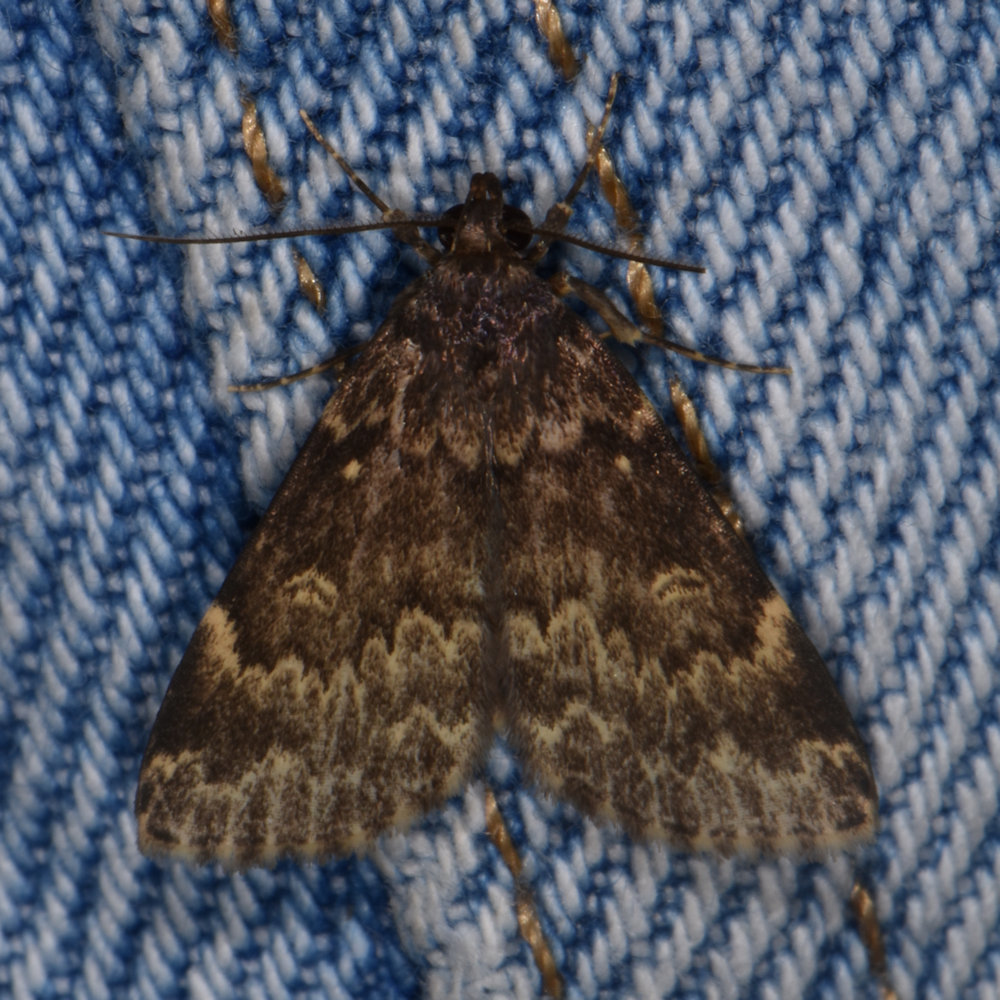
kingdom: Animalia
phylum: Arthropoda
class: Insecta
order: Lepidoptera
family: Erebidae
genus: Idia
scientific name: Idia lubricalis
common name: Twin-striped tabby
